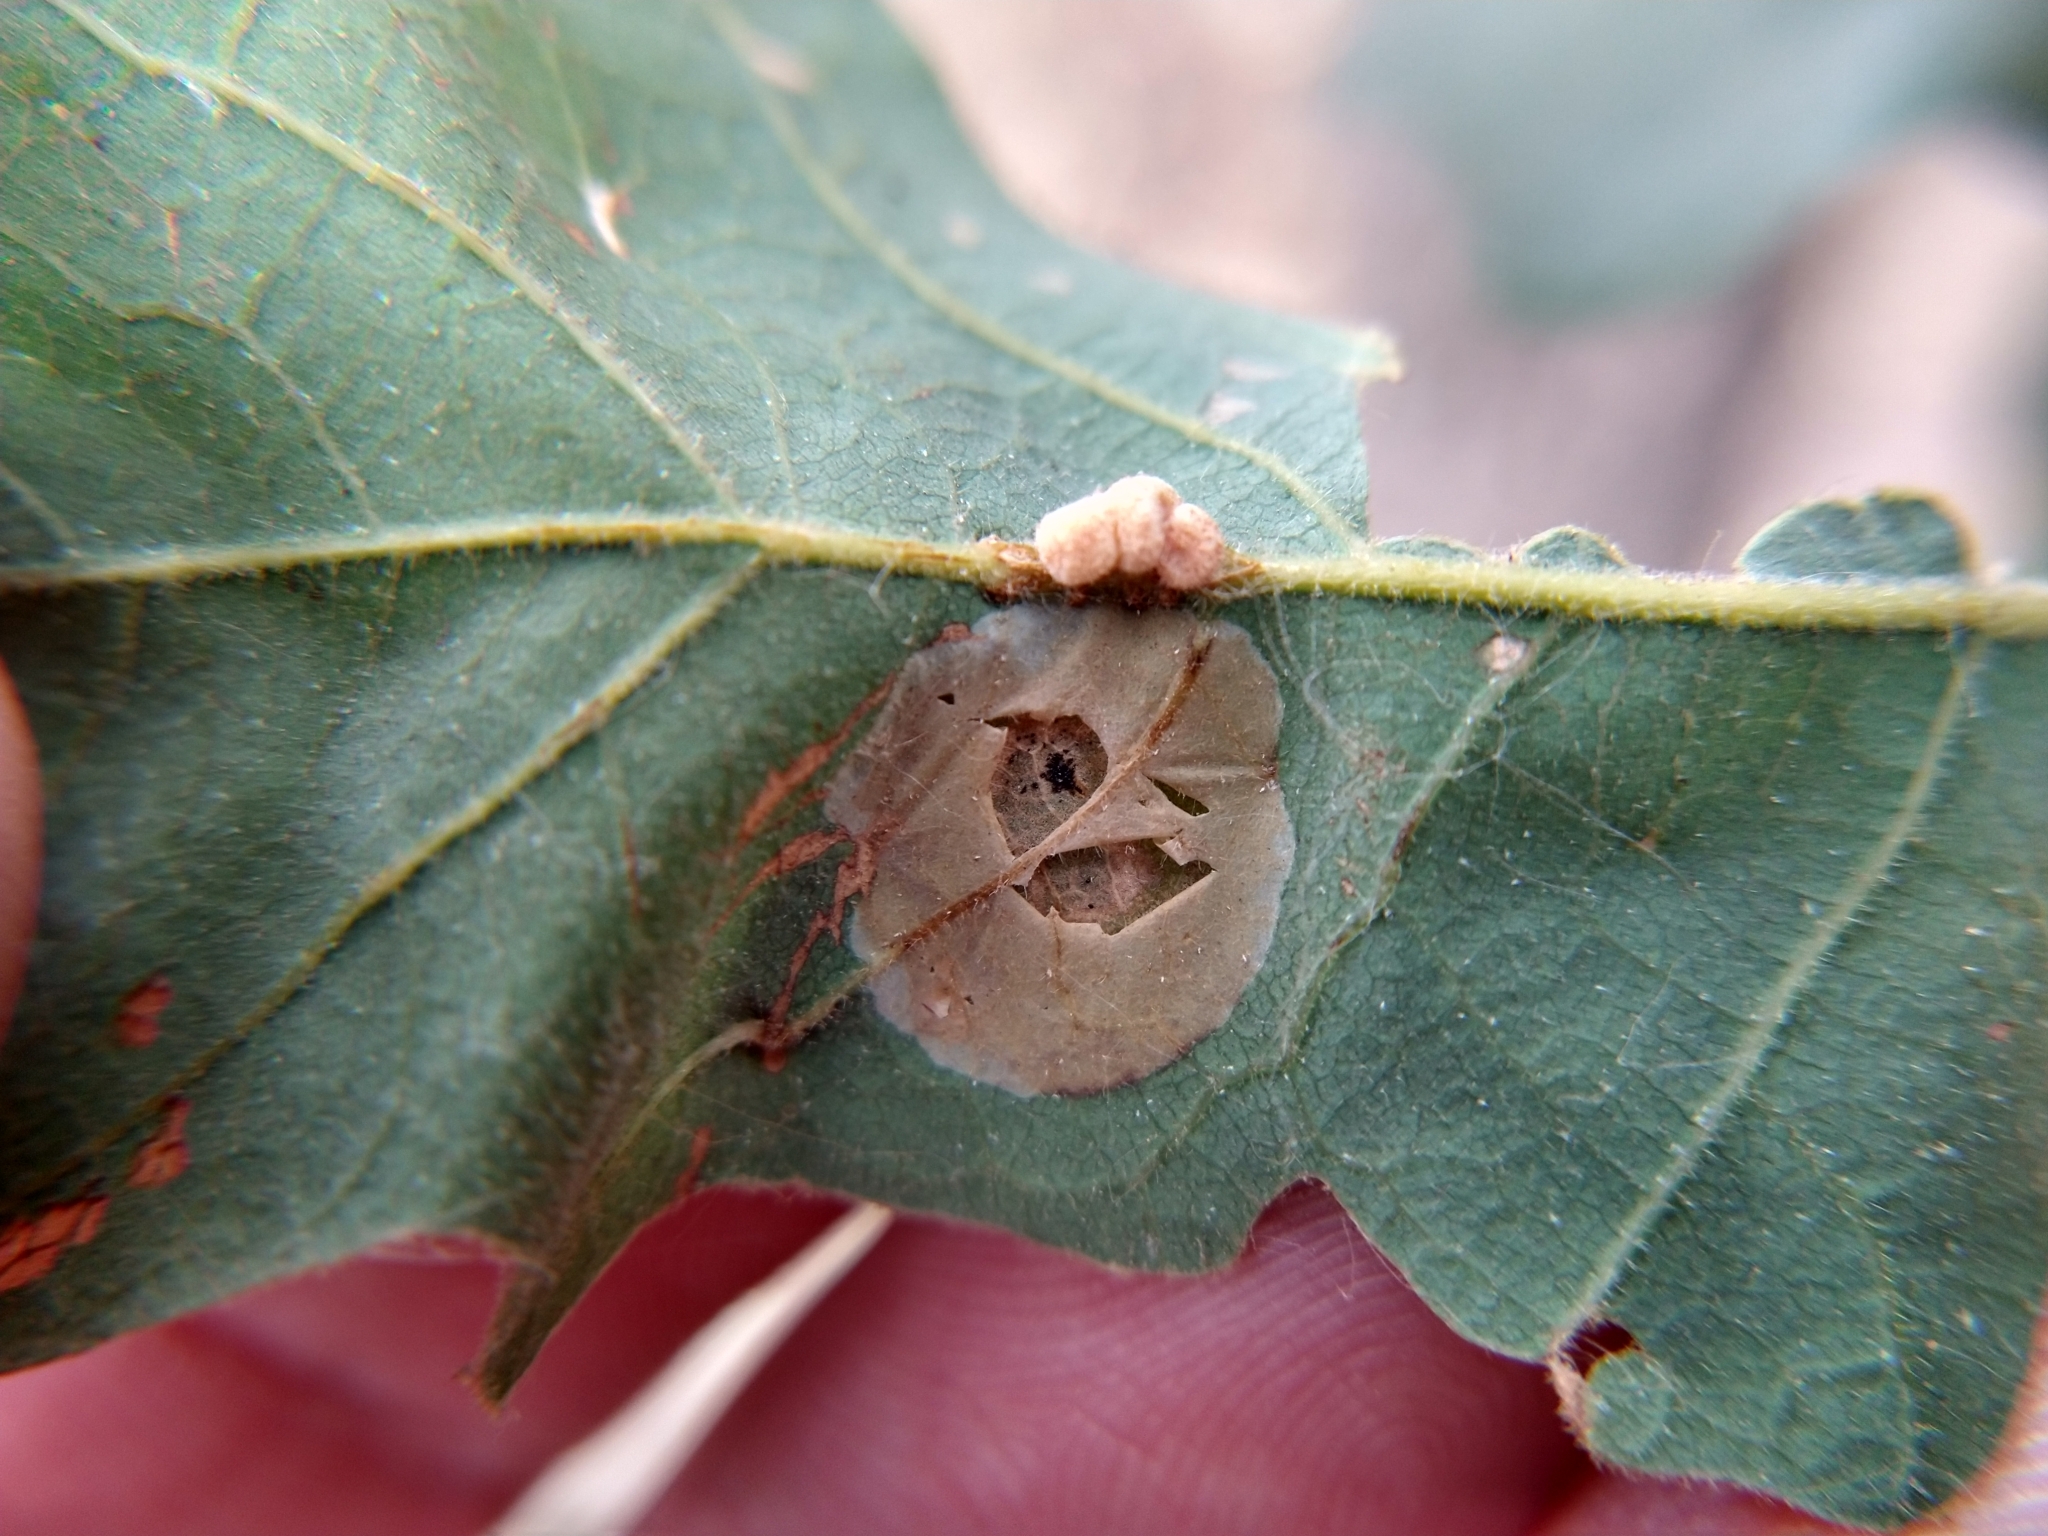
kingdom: Animalia
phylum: Arthropoda
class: Insecta
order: Lepidoptera
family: Gracillariidae
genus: Phyllonorycter
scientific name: Phyllonorycter
